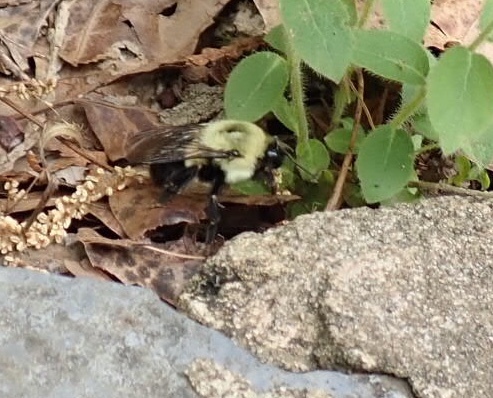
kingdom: Animalia
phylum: Arthropoda
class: Insecta
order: Hymenoptera
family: Apidae
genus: Bombus
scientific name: Bombus impatiens
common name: Common eastern bumble bee
